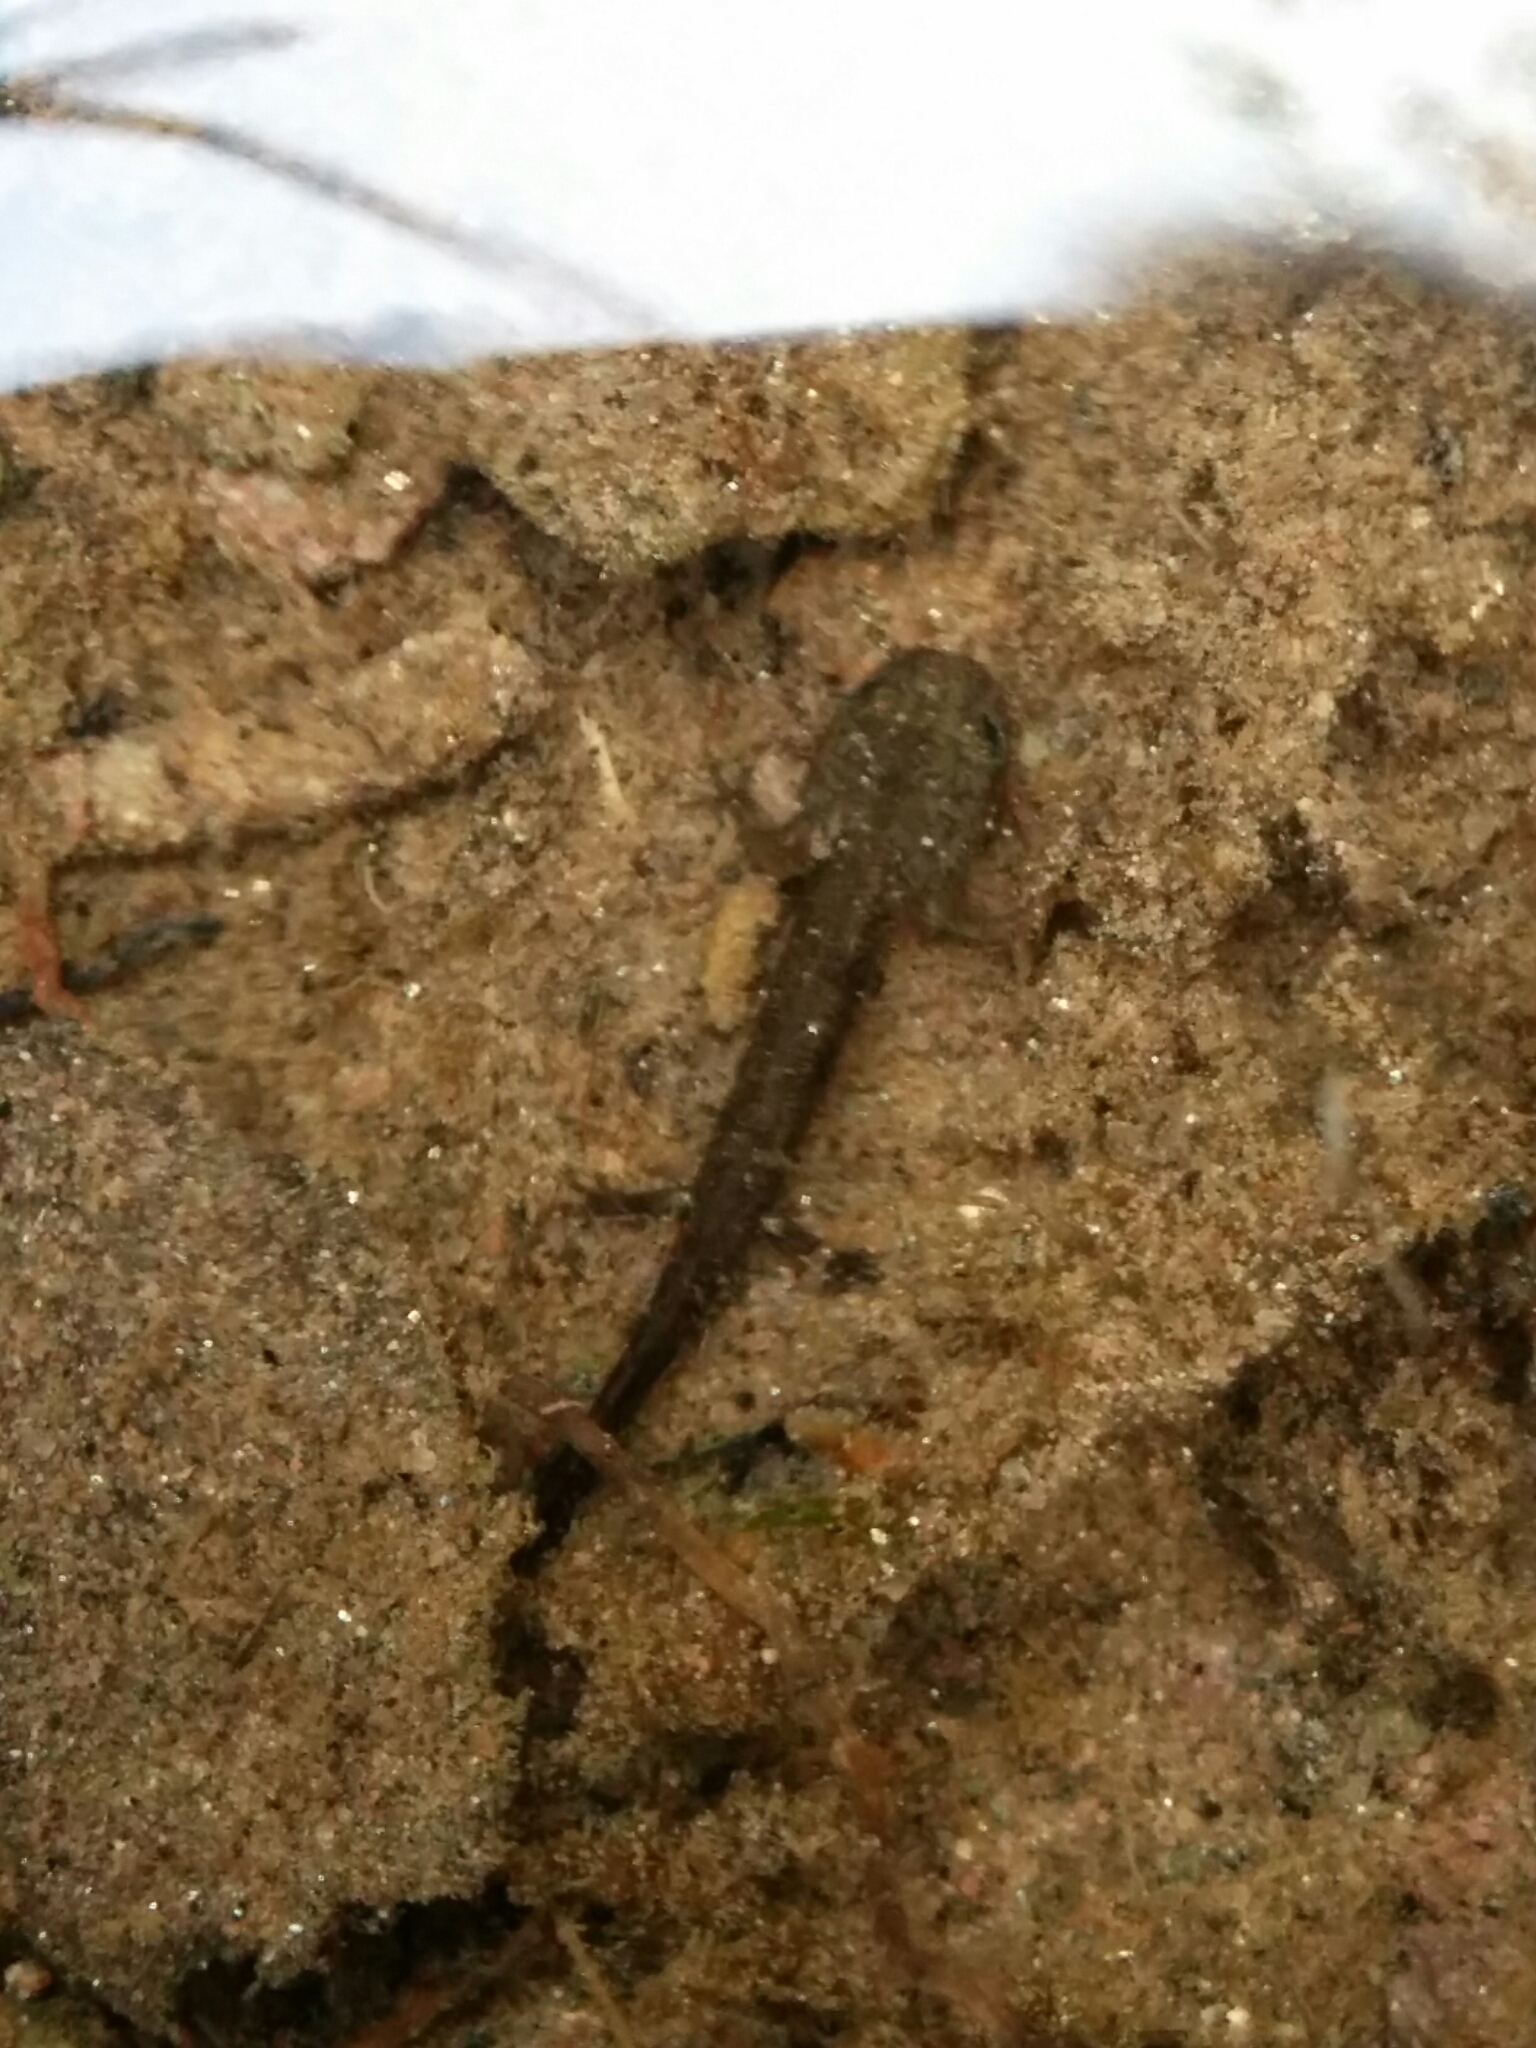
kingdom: Animalia
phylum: Chordata
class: Amphibia
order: Caudata
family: Salamandridae
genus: Salamandra
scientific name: Salamandra salamandra
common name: Fire salamander
